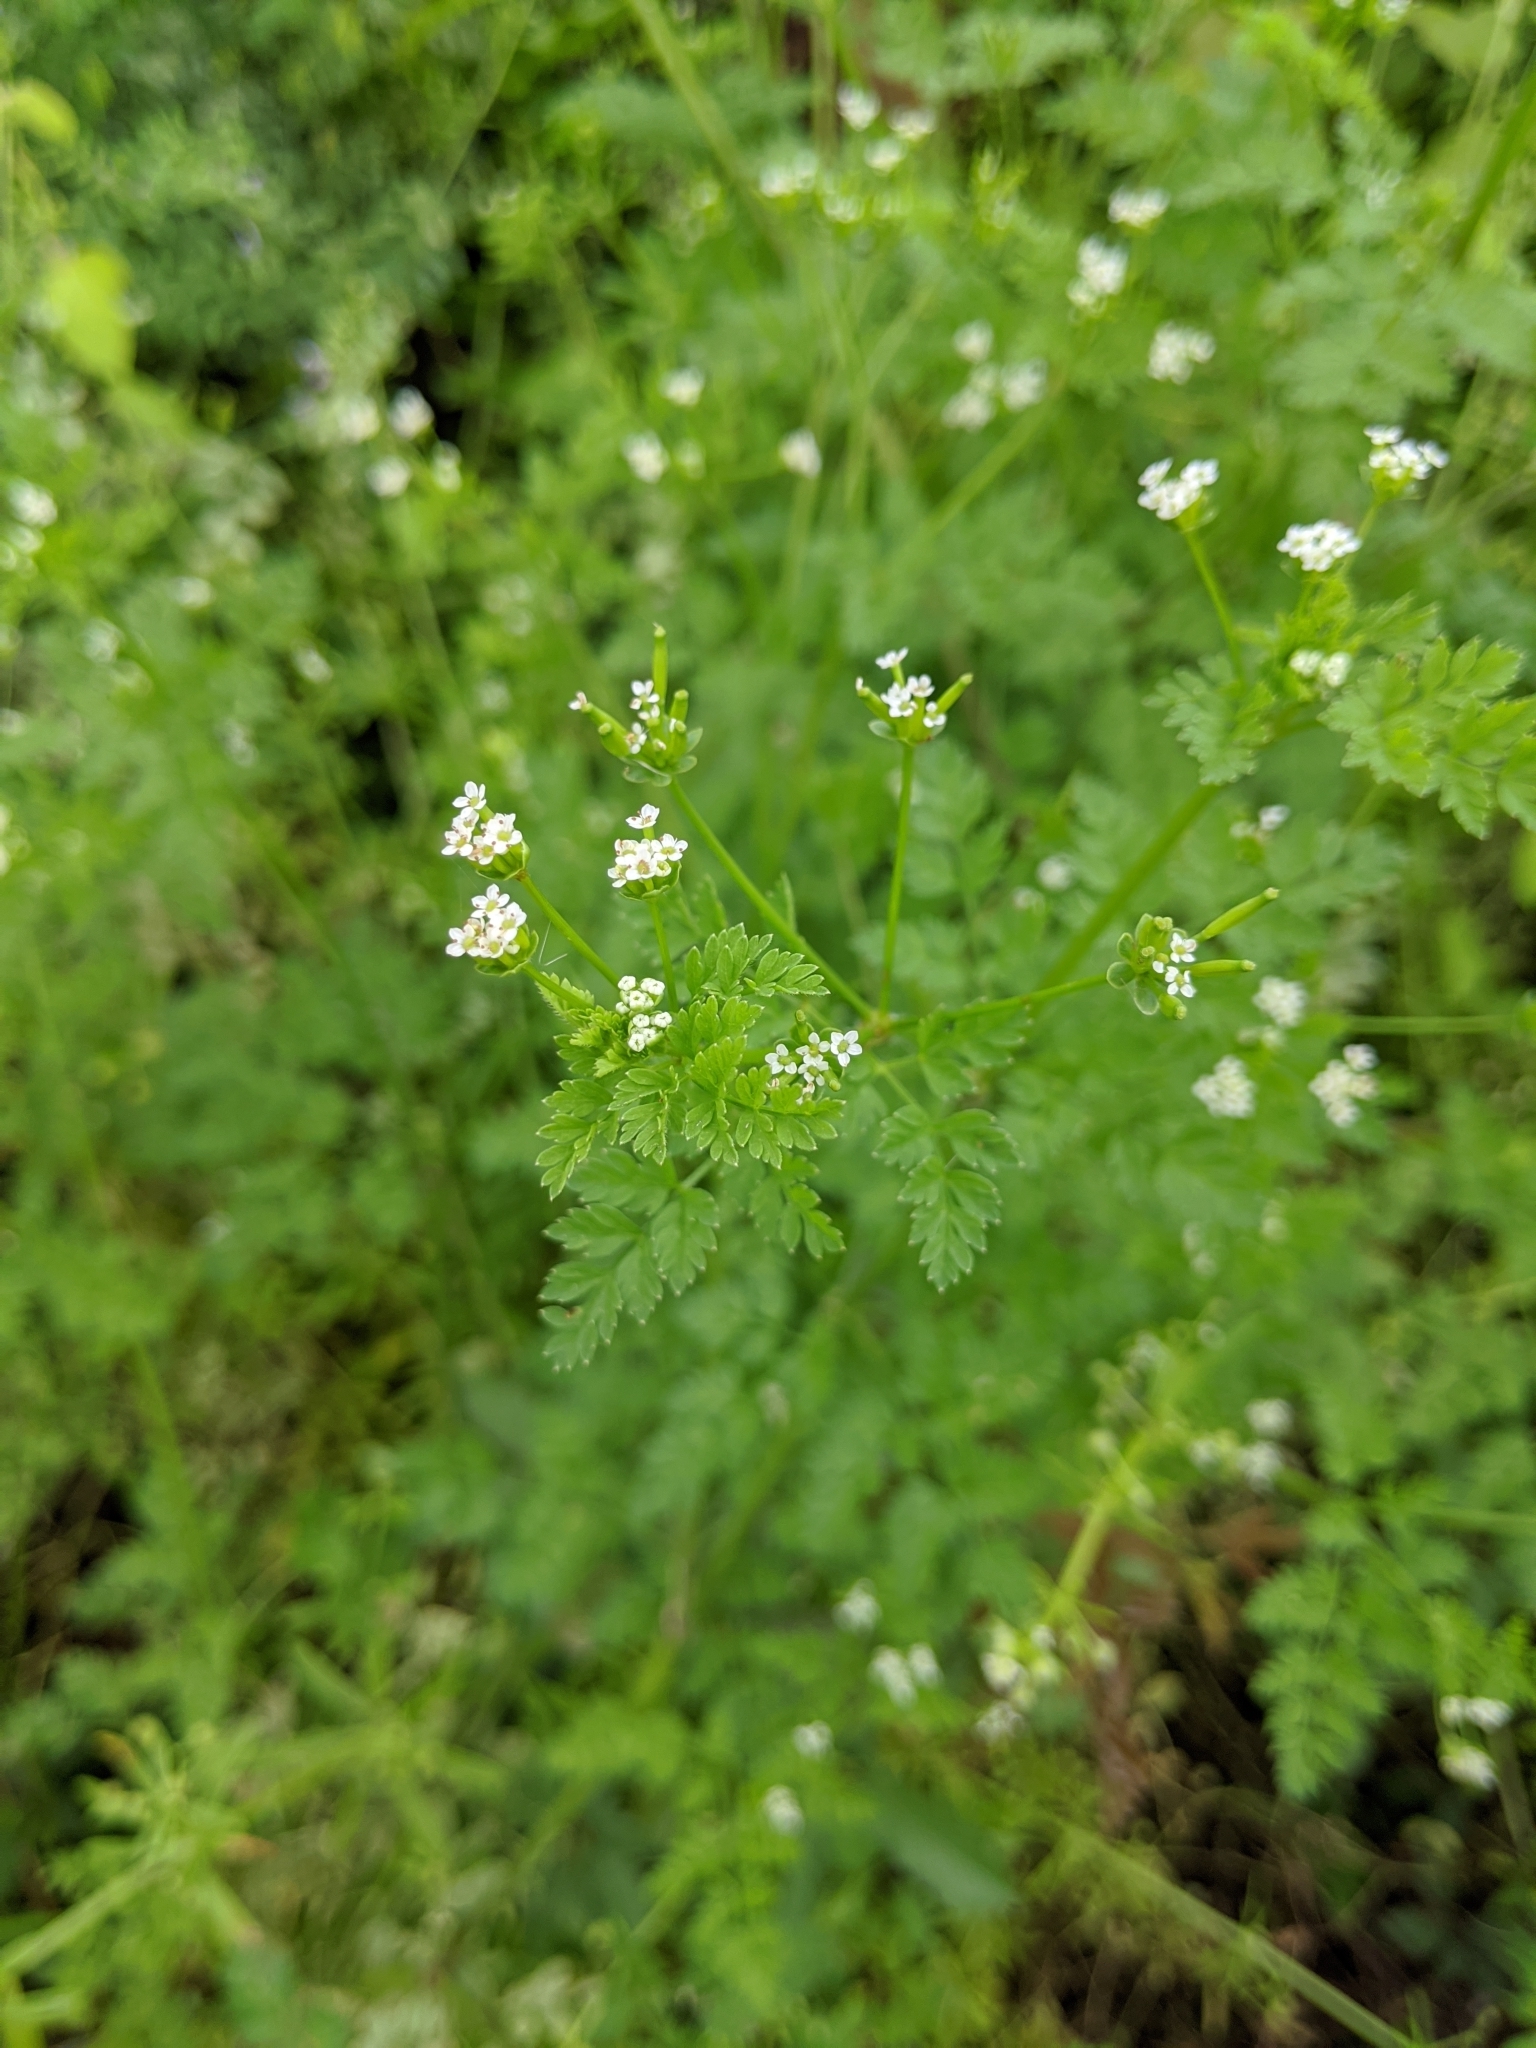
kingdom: Plantae
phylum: Tracheophyta
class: Magnoliopsida
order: Apiales
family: Apiaceae
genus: Chaerophyllum
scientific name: Chaerophyllum tainturieri
